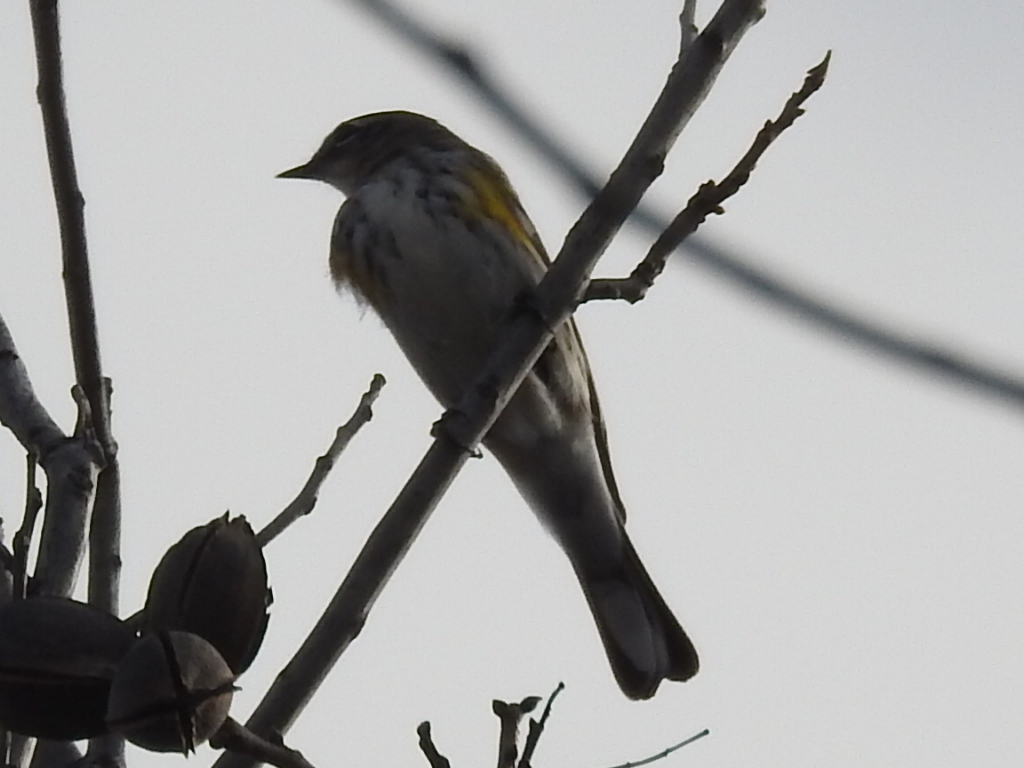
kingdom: Animalia
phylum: Chordata
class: Aves
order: Passeriformes
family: Parulidae
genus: Setophaga
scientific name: Setophaga coronata
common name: Myrtle warbler
